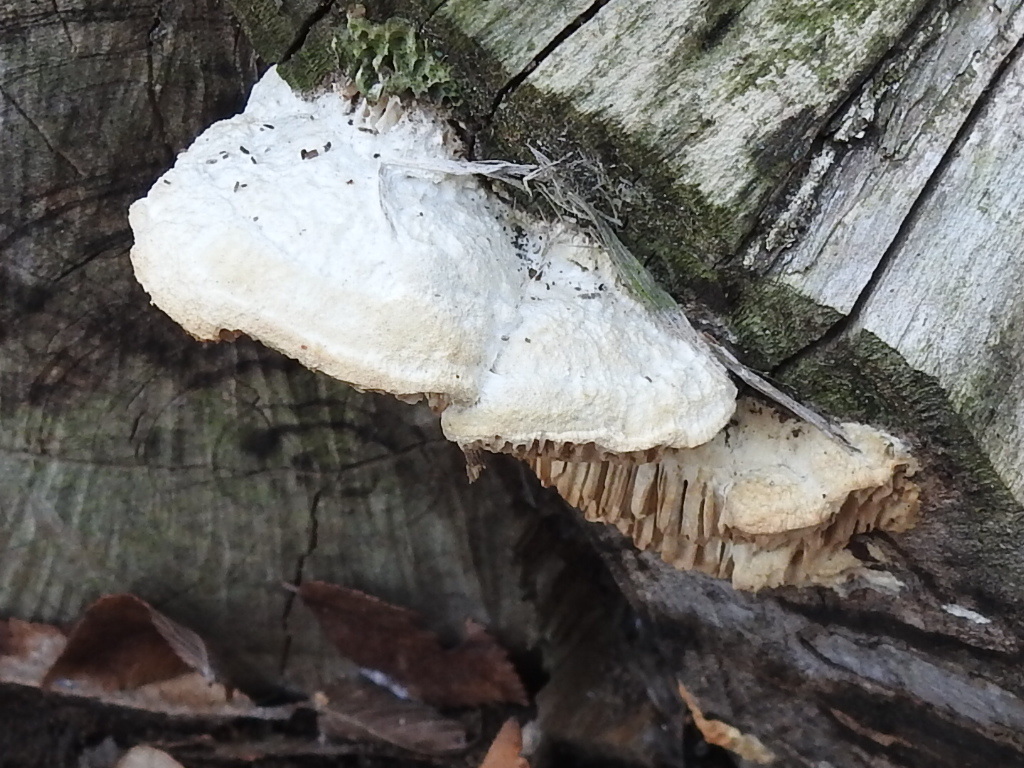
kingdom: Fungi
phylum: Basidiomycota
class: Agaricomycetes
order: Polyporales
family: Fomitopsidaceae
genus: Fomitopsis
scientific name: Fomitopsis
